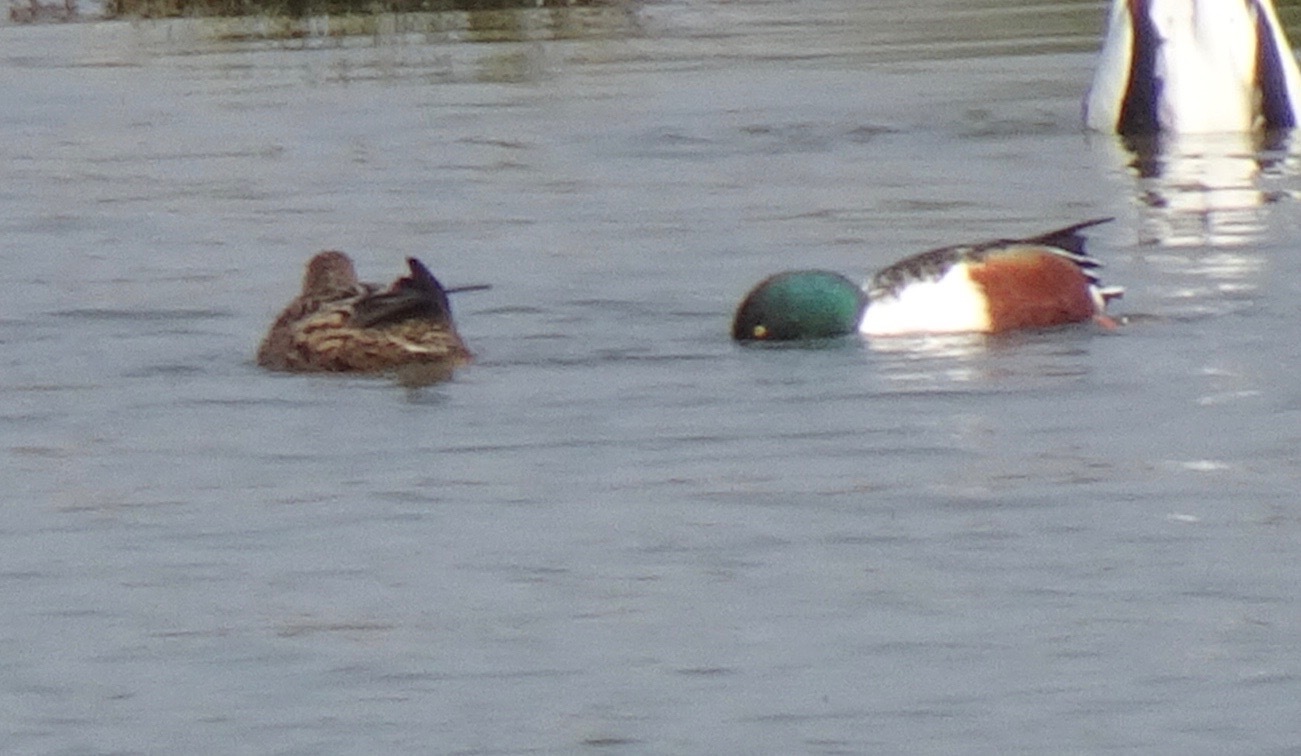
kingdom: Animalia
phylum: Chordata
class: Aves
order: Anseriformes
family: Anatidae
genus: Spatula
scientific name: Spatula clypeata
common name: Northern shoveler
